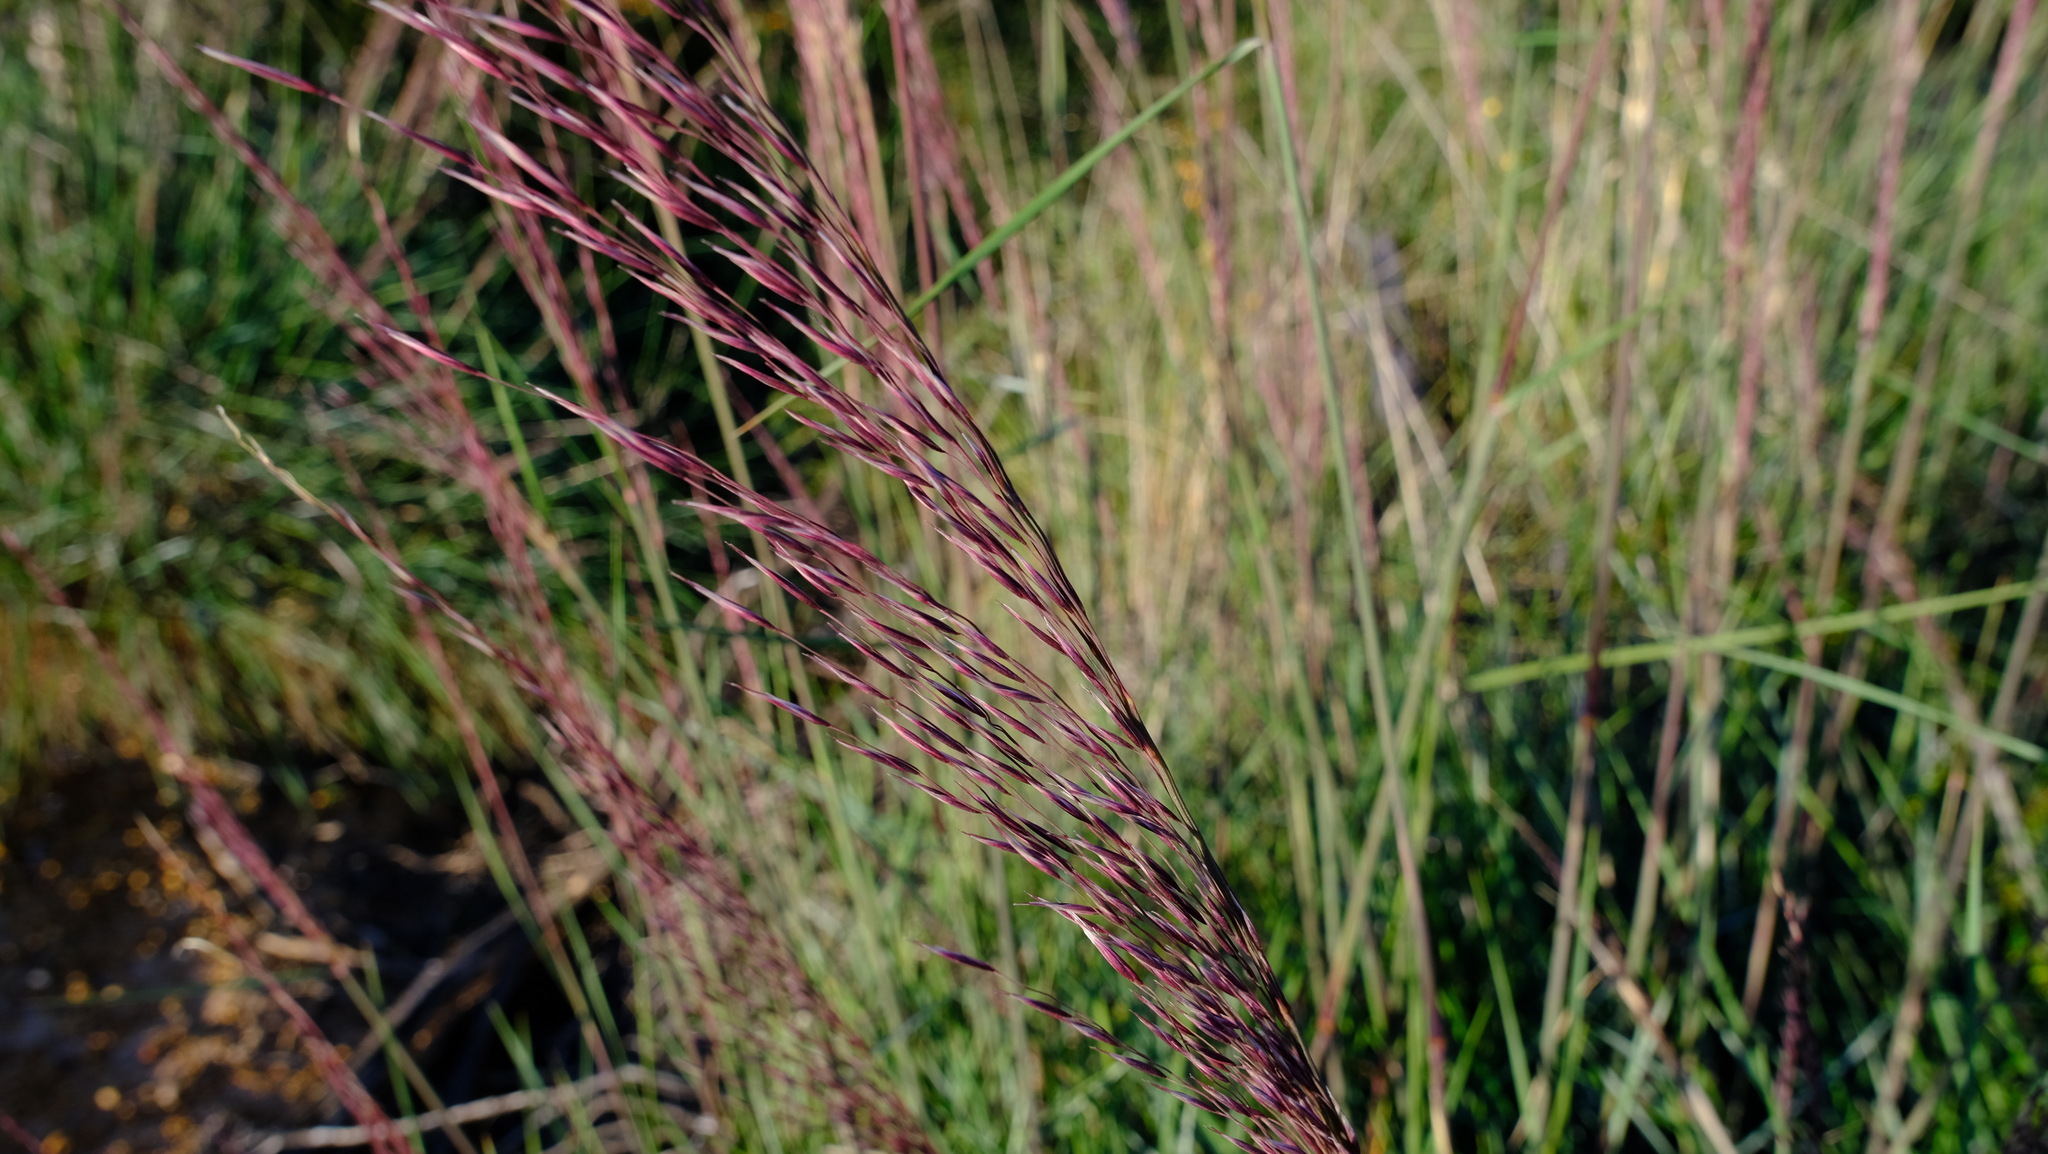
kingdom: Plantae
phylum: Tracheophyta
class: Liliopsida
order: Poales
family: Poaceae
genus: Triodia
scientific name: Triodia dielsii
